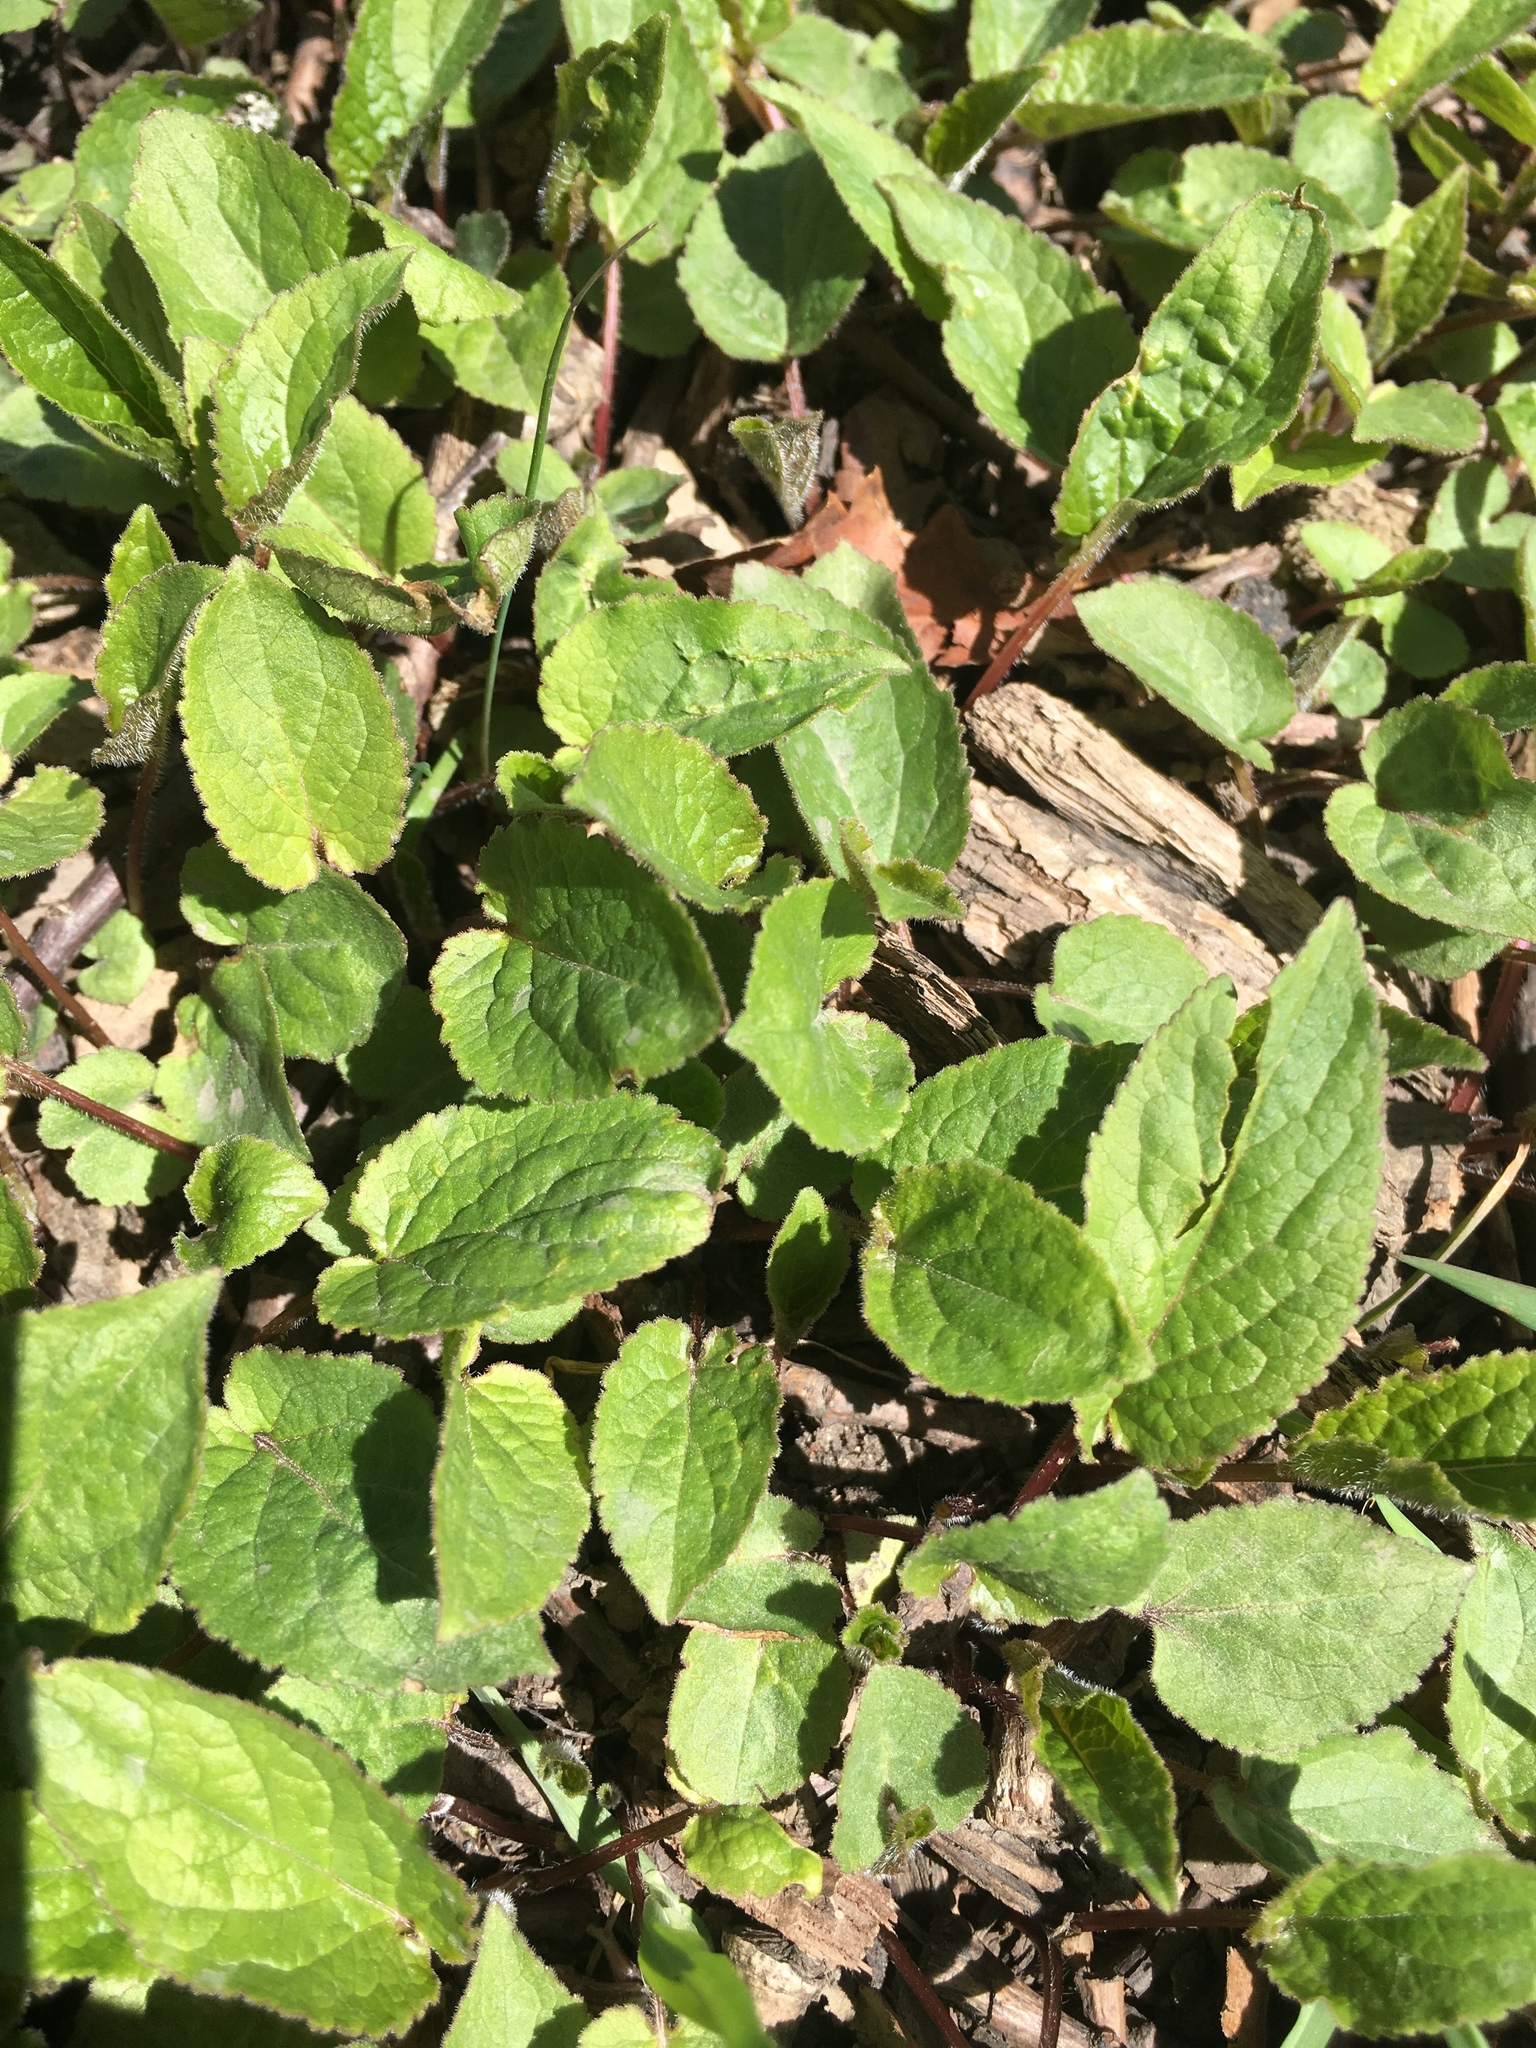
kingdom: Plantae
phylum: Tracheophyta
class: Magnoliopsida
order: Asterales
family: Campanulaceae
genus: Campanula
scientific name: Campanula rapunculoides
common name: Creeping bellflower
